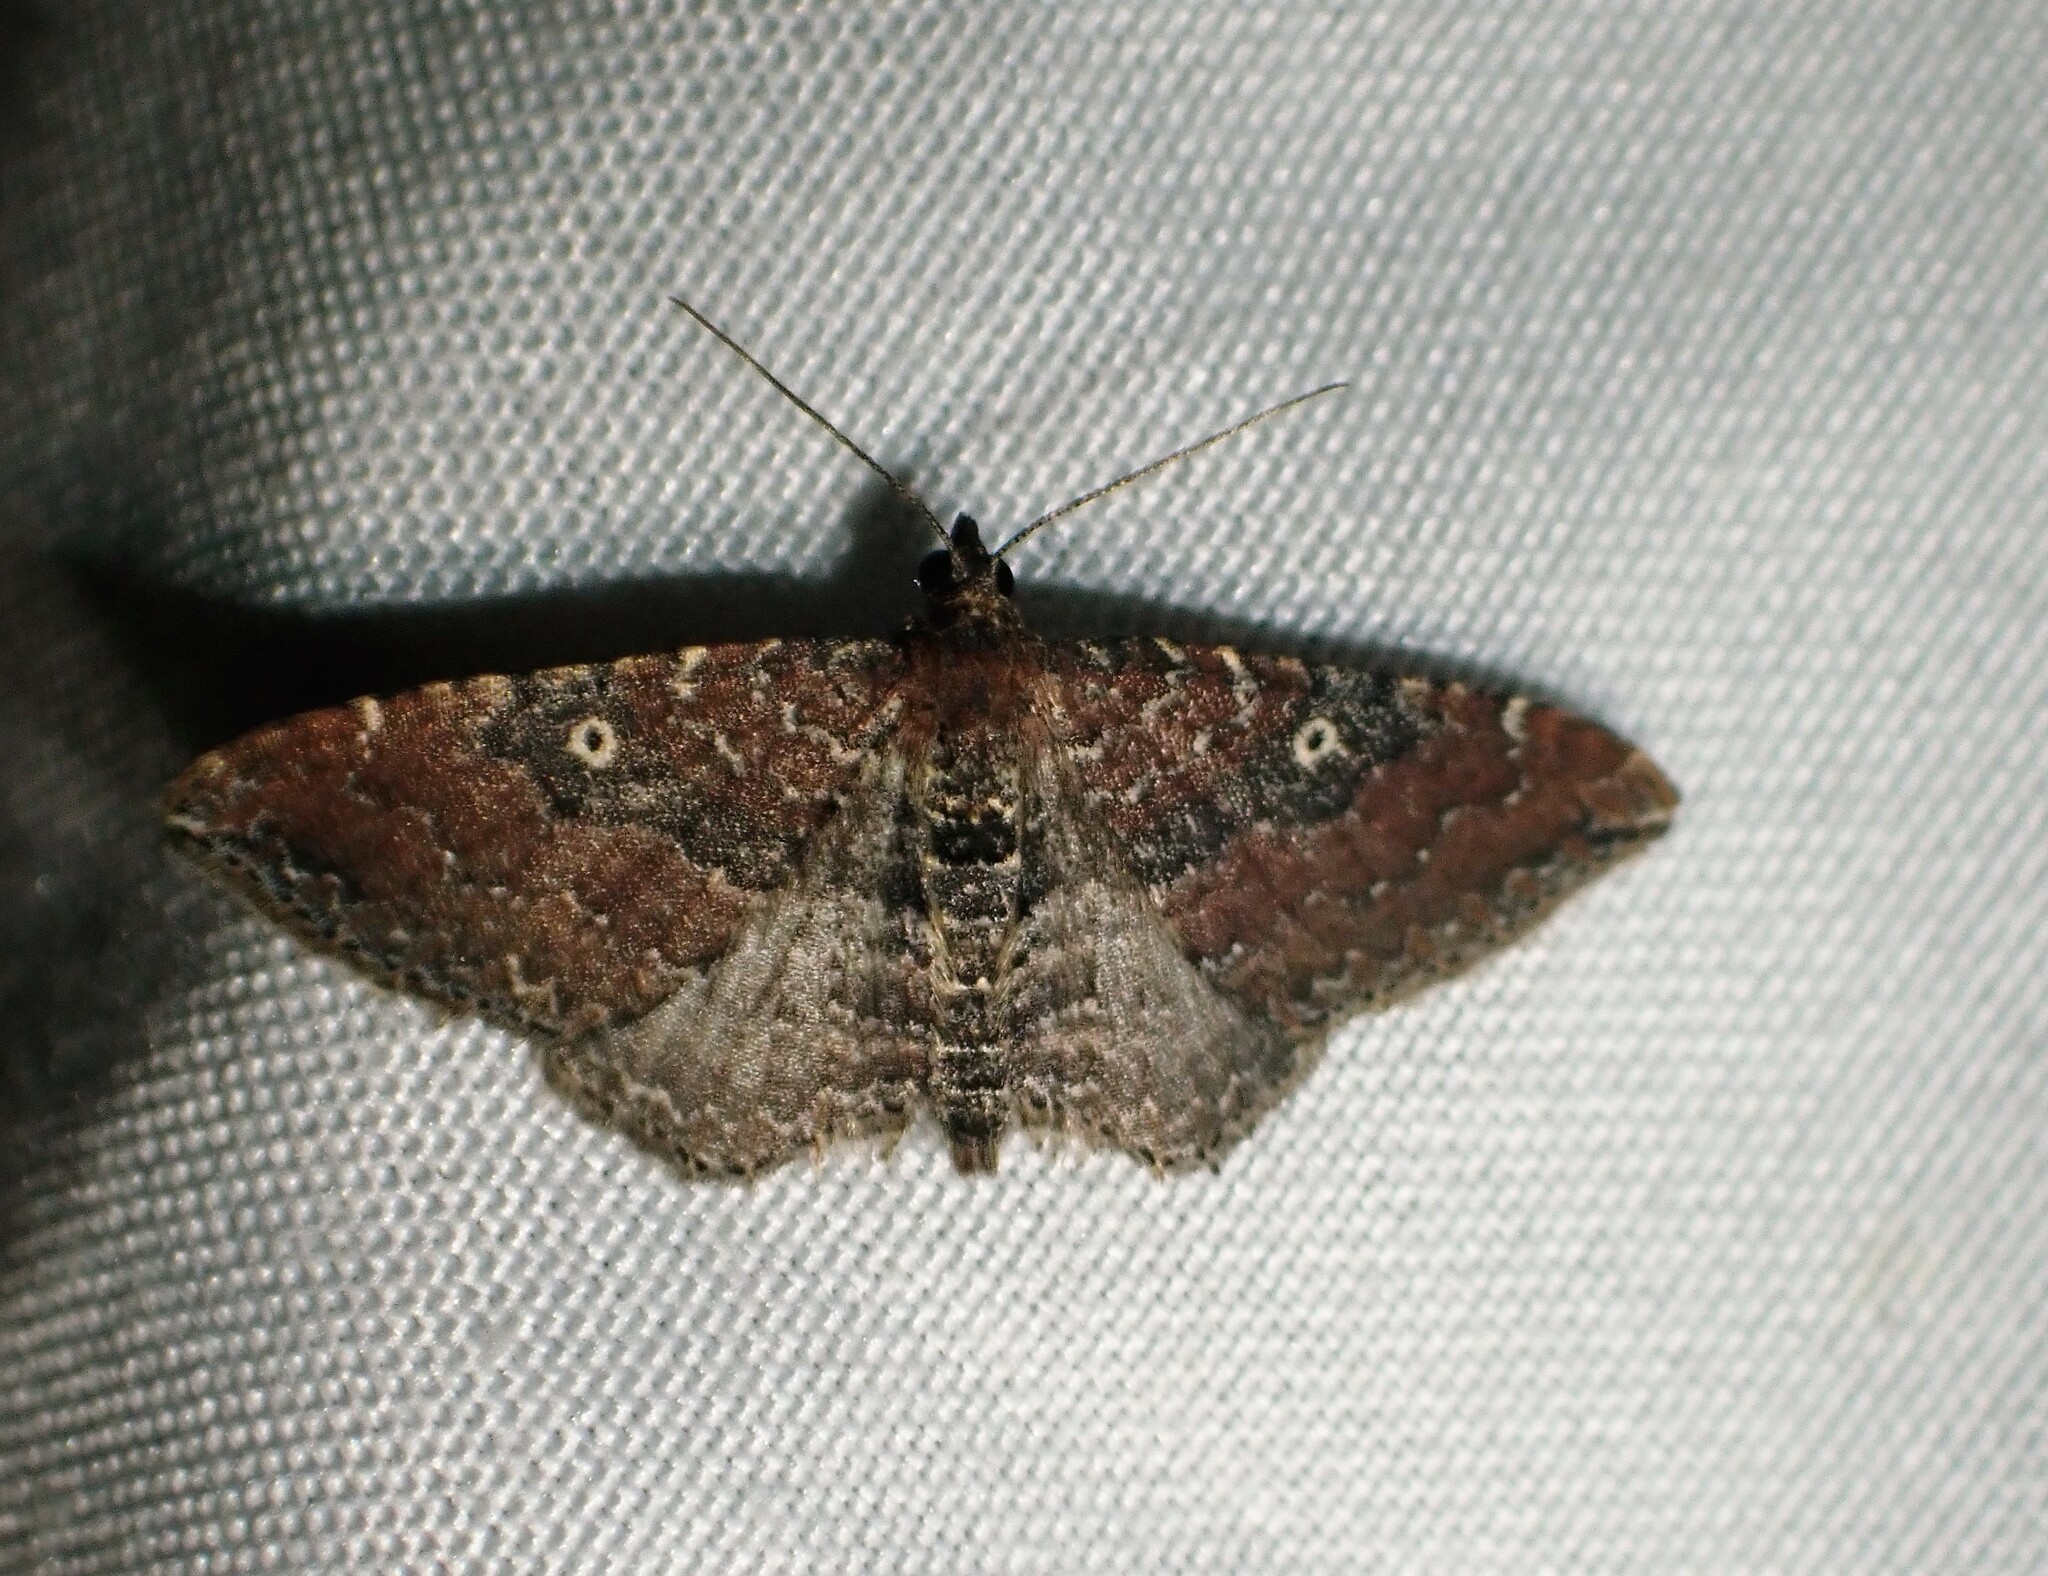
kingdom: Animalia
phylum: Arthropoda
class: Insecta
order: Lepidoptera
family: Geometridae
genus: Orthonama
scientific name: Orthonama obstipata
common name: The gem
